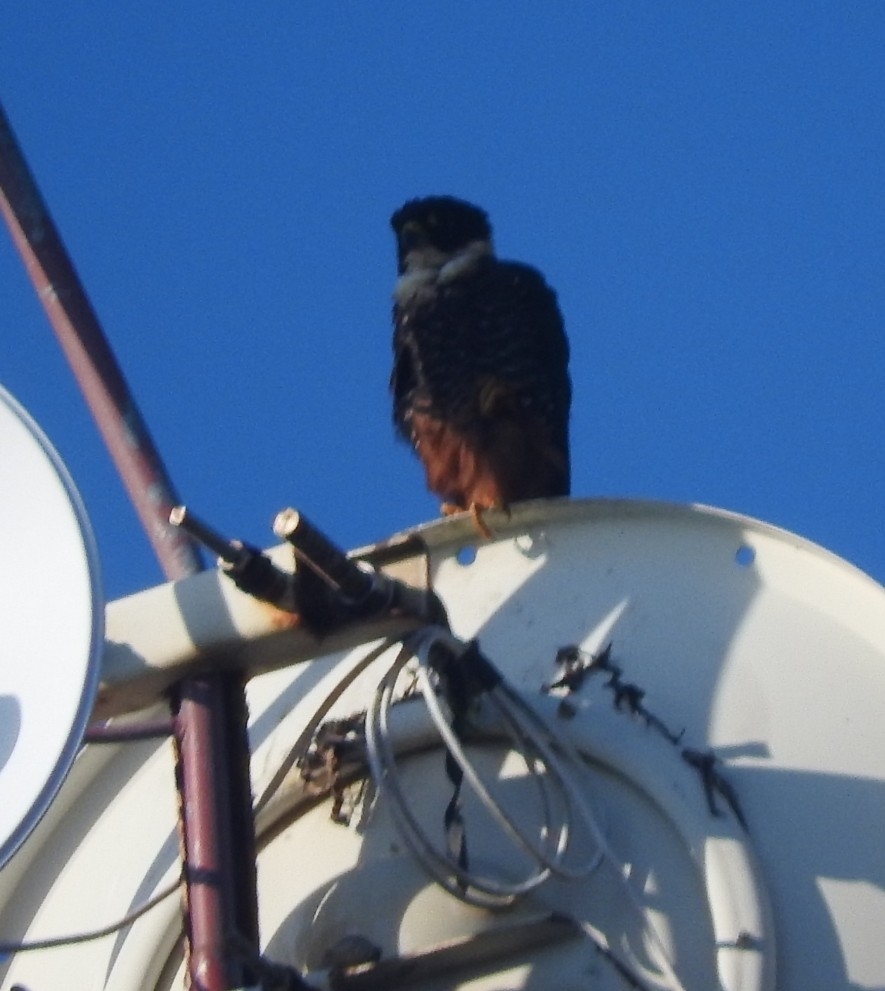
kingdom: Animalia
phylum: Chordata
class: Aves
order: Falconiformes
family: Falconidae
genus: Falco
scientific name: Falco rufigularis
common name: Bat falcon
